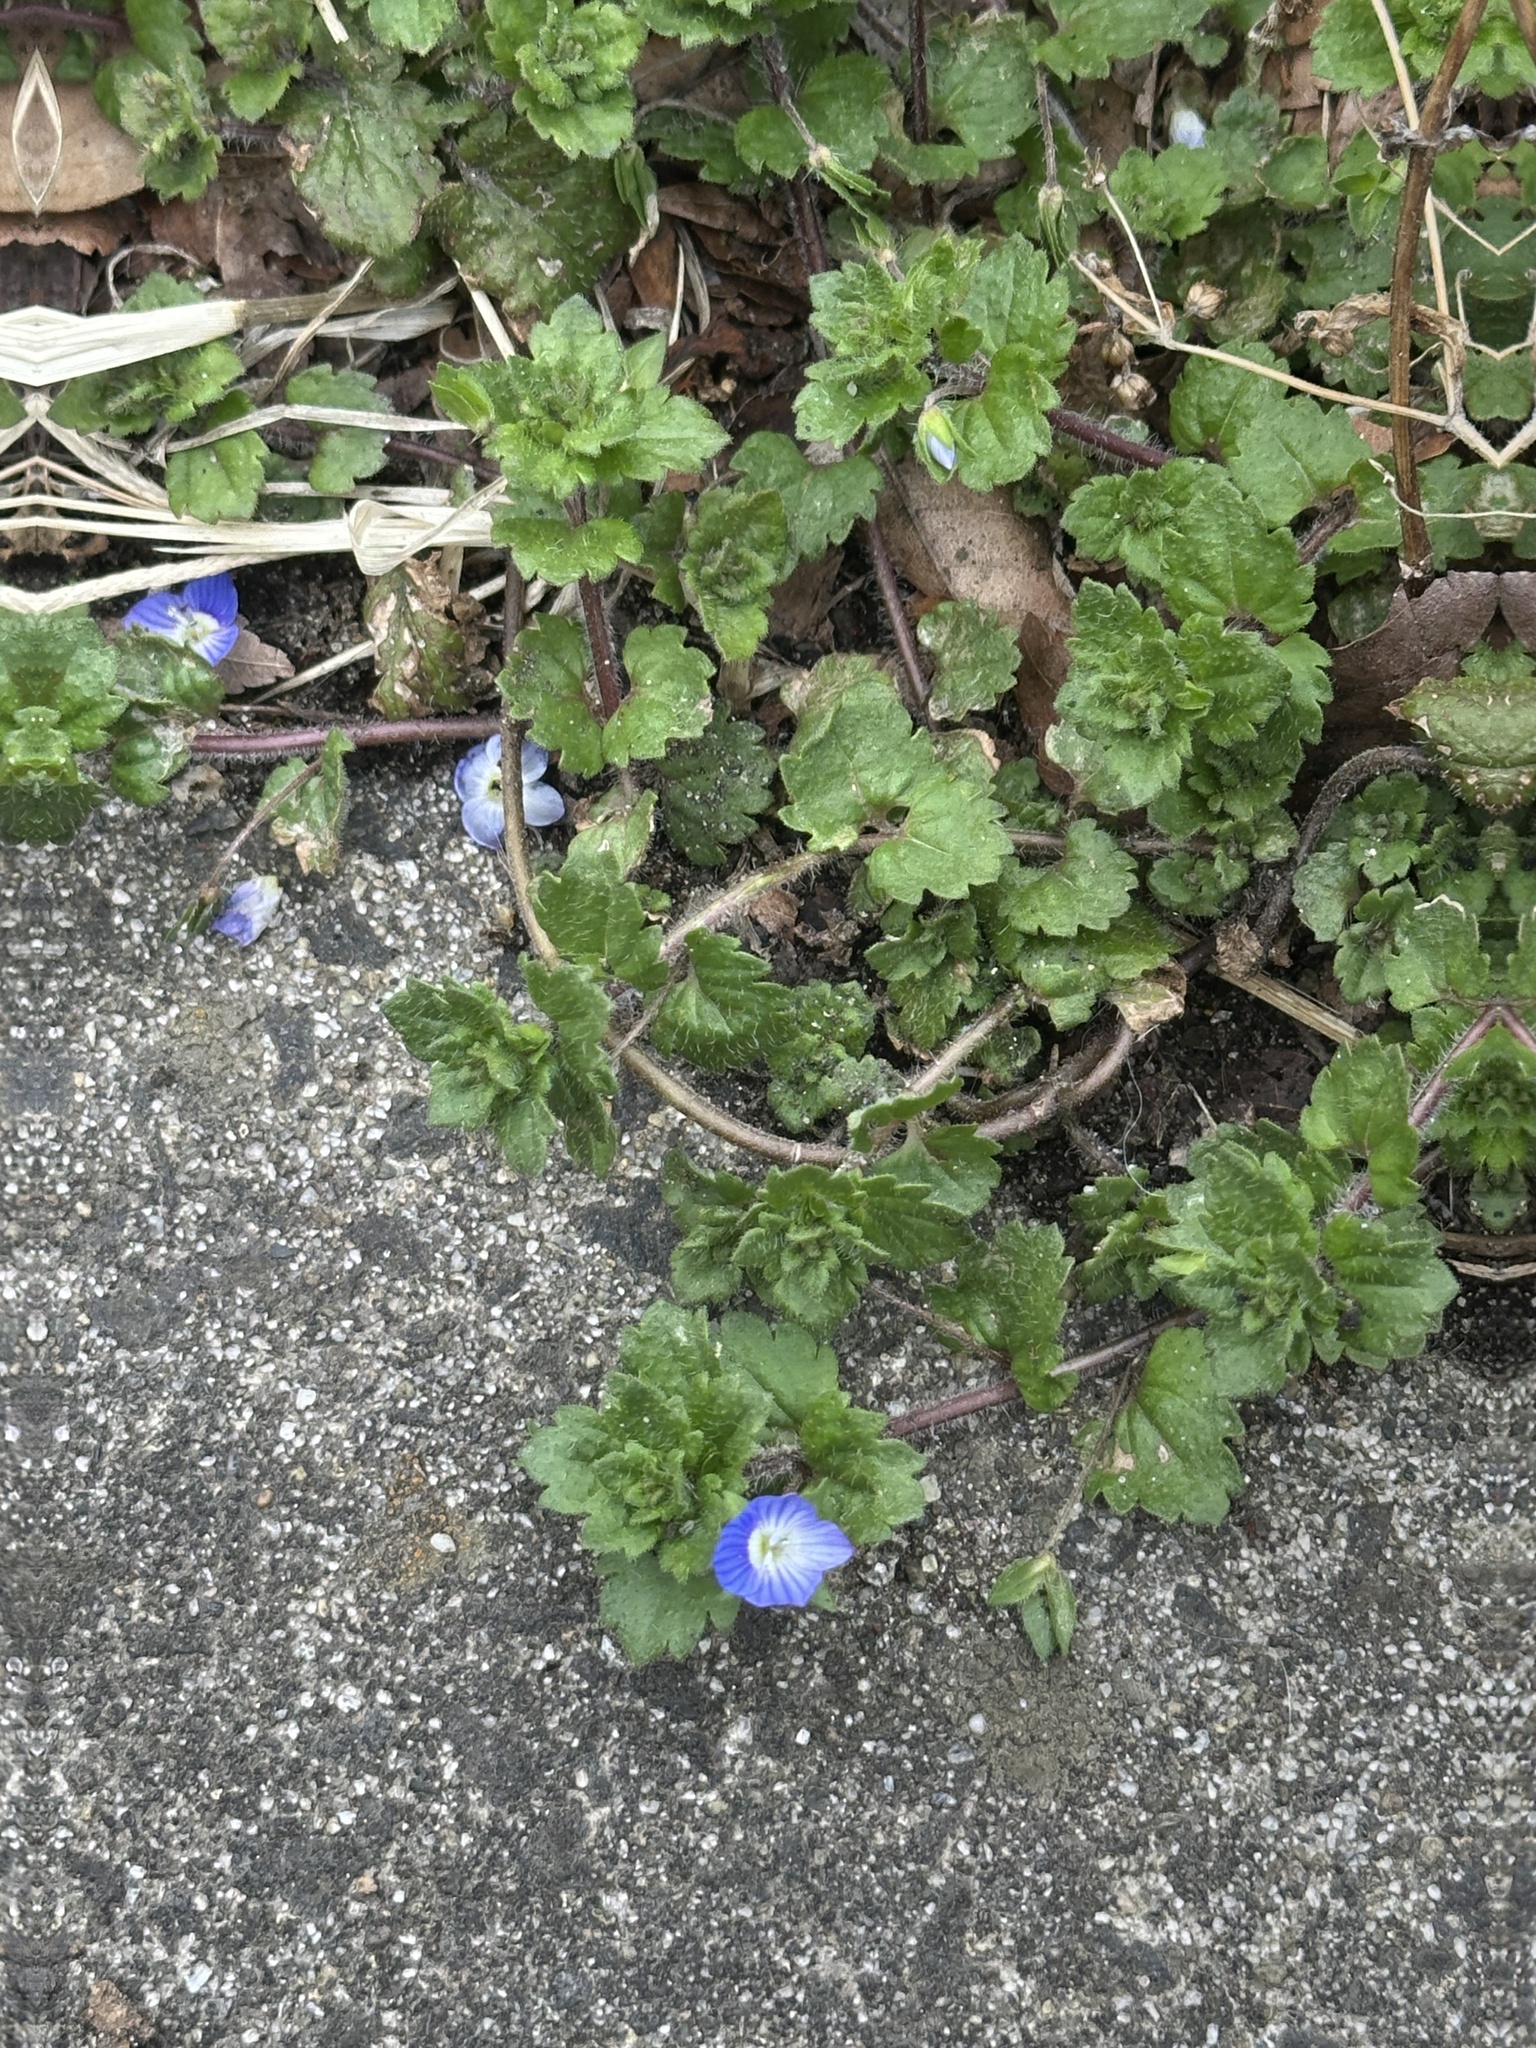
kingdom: Plantae
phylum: Tracheophyta
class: Magnoliopsida
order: Lamiales
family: Plantaginaceae
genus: Veronica
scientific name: Veronica persica
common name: Common field-speedwell
